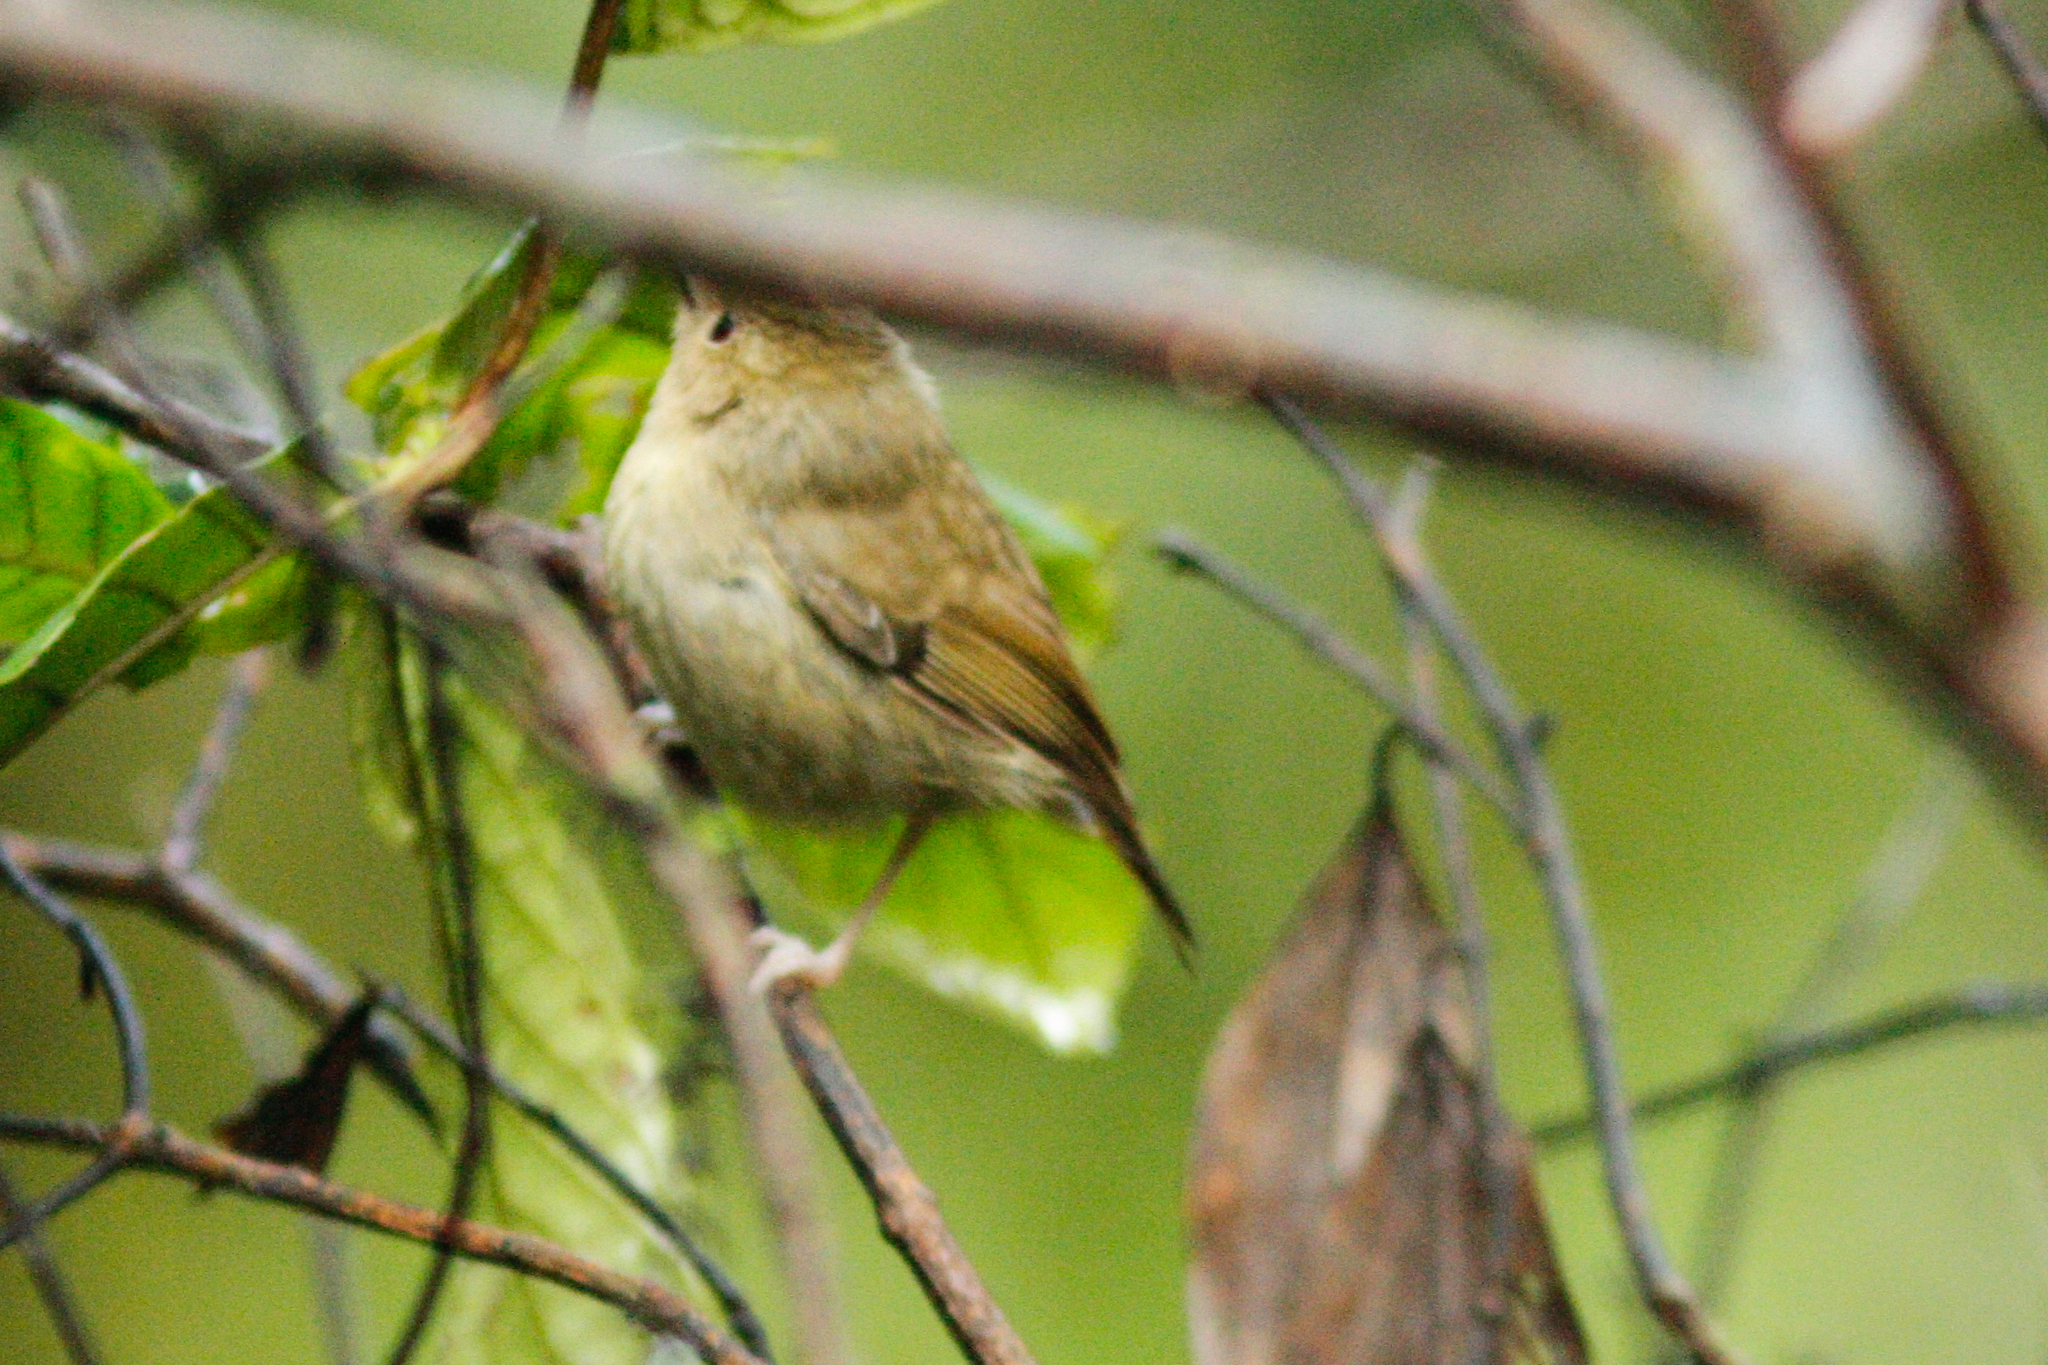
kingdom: Animalia
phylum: Chordata
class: Aves
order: Passeriformes
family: Acanthizidae
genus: Sericornis
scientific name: Sericornis keri
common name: Atherton scrubwren
